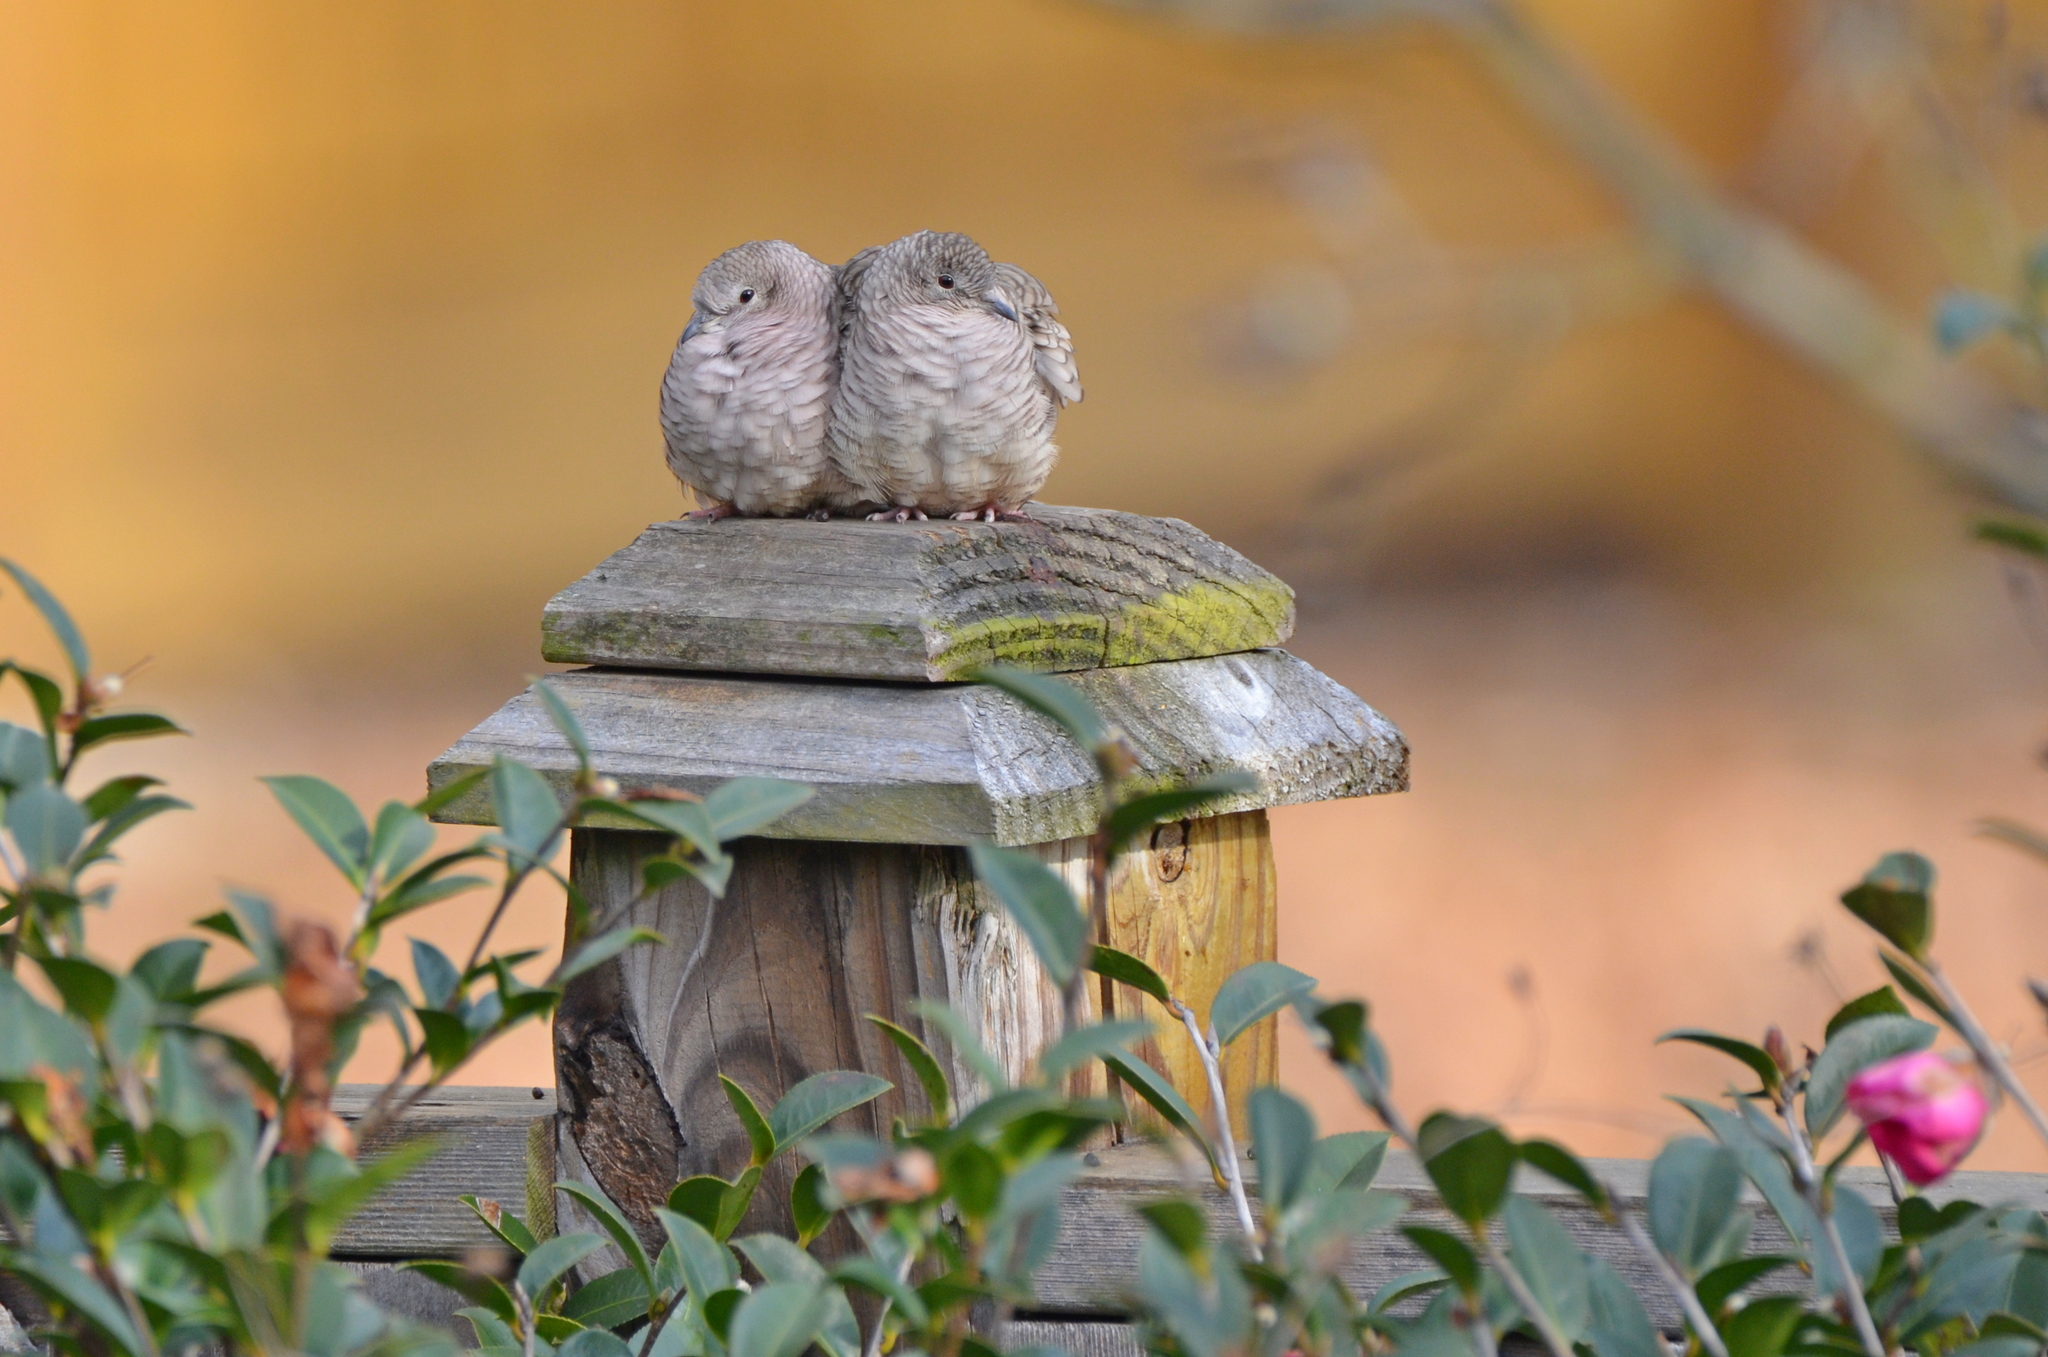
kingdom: Animalia
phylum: Chordata
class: Aves
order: Columbiformes
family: Columbidae
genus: Columbina
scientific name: Columbina inca
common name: Inca dove
